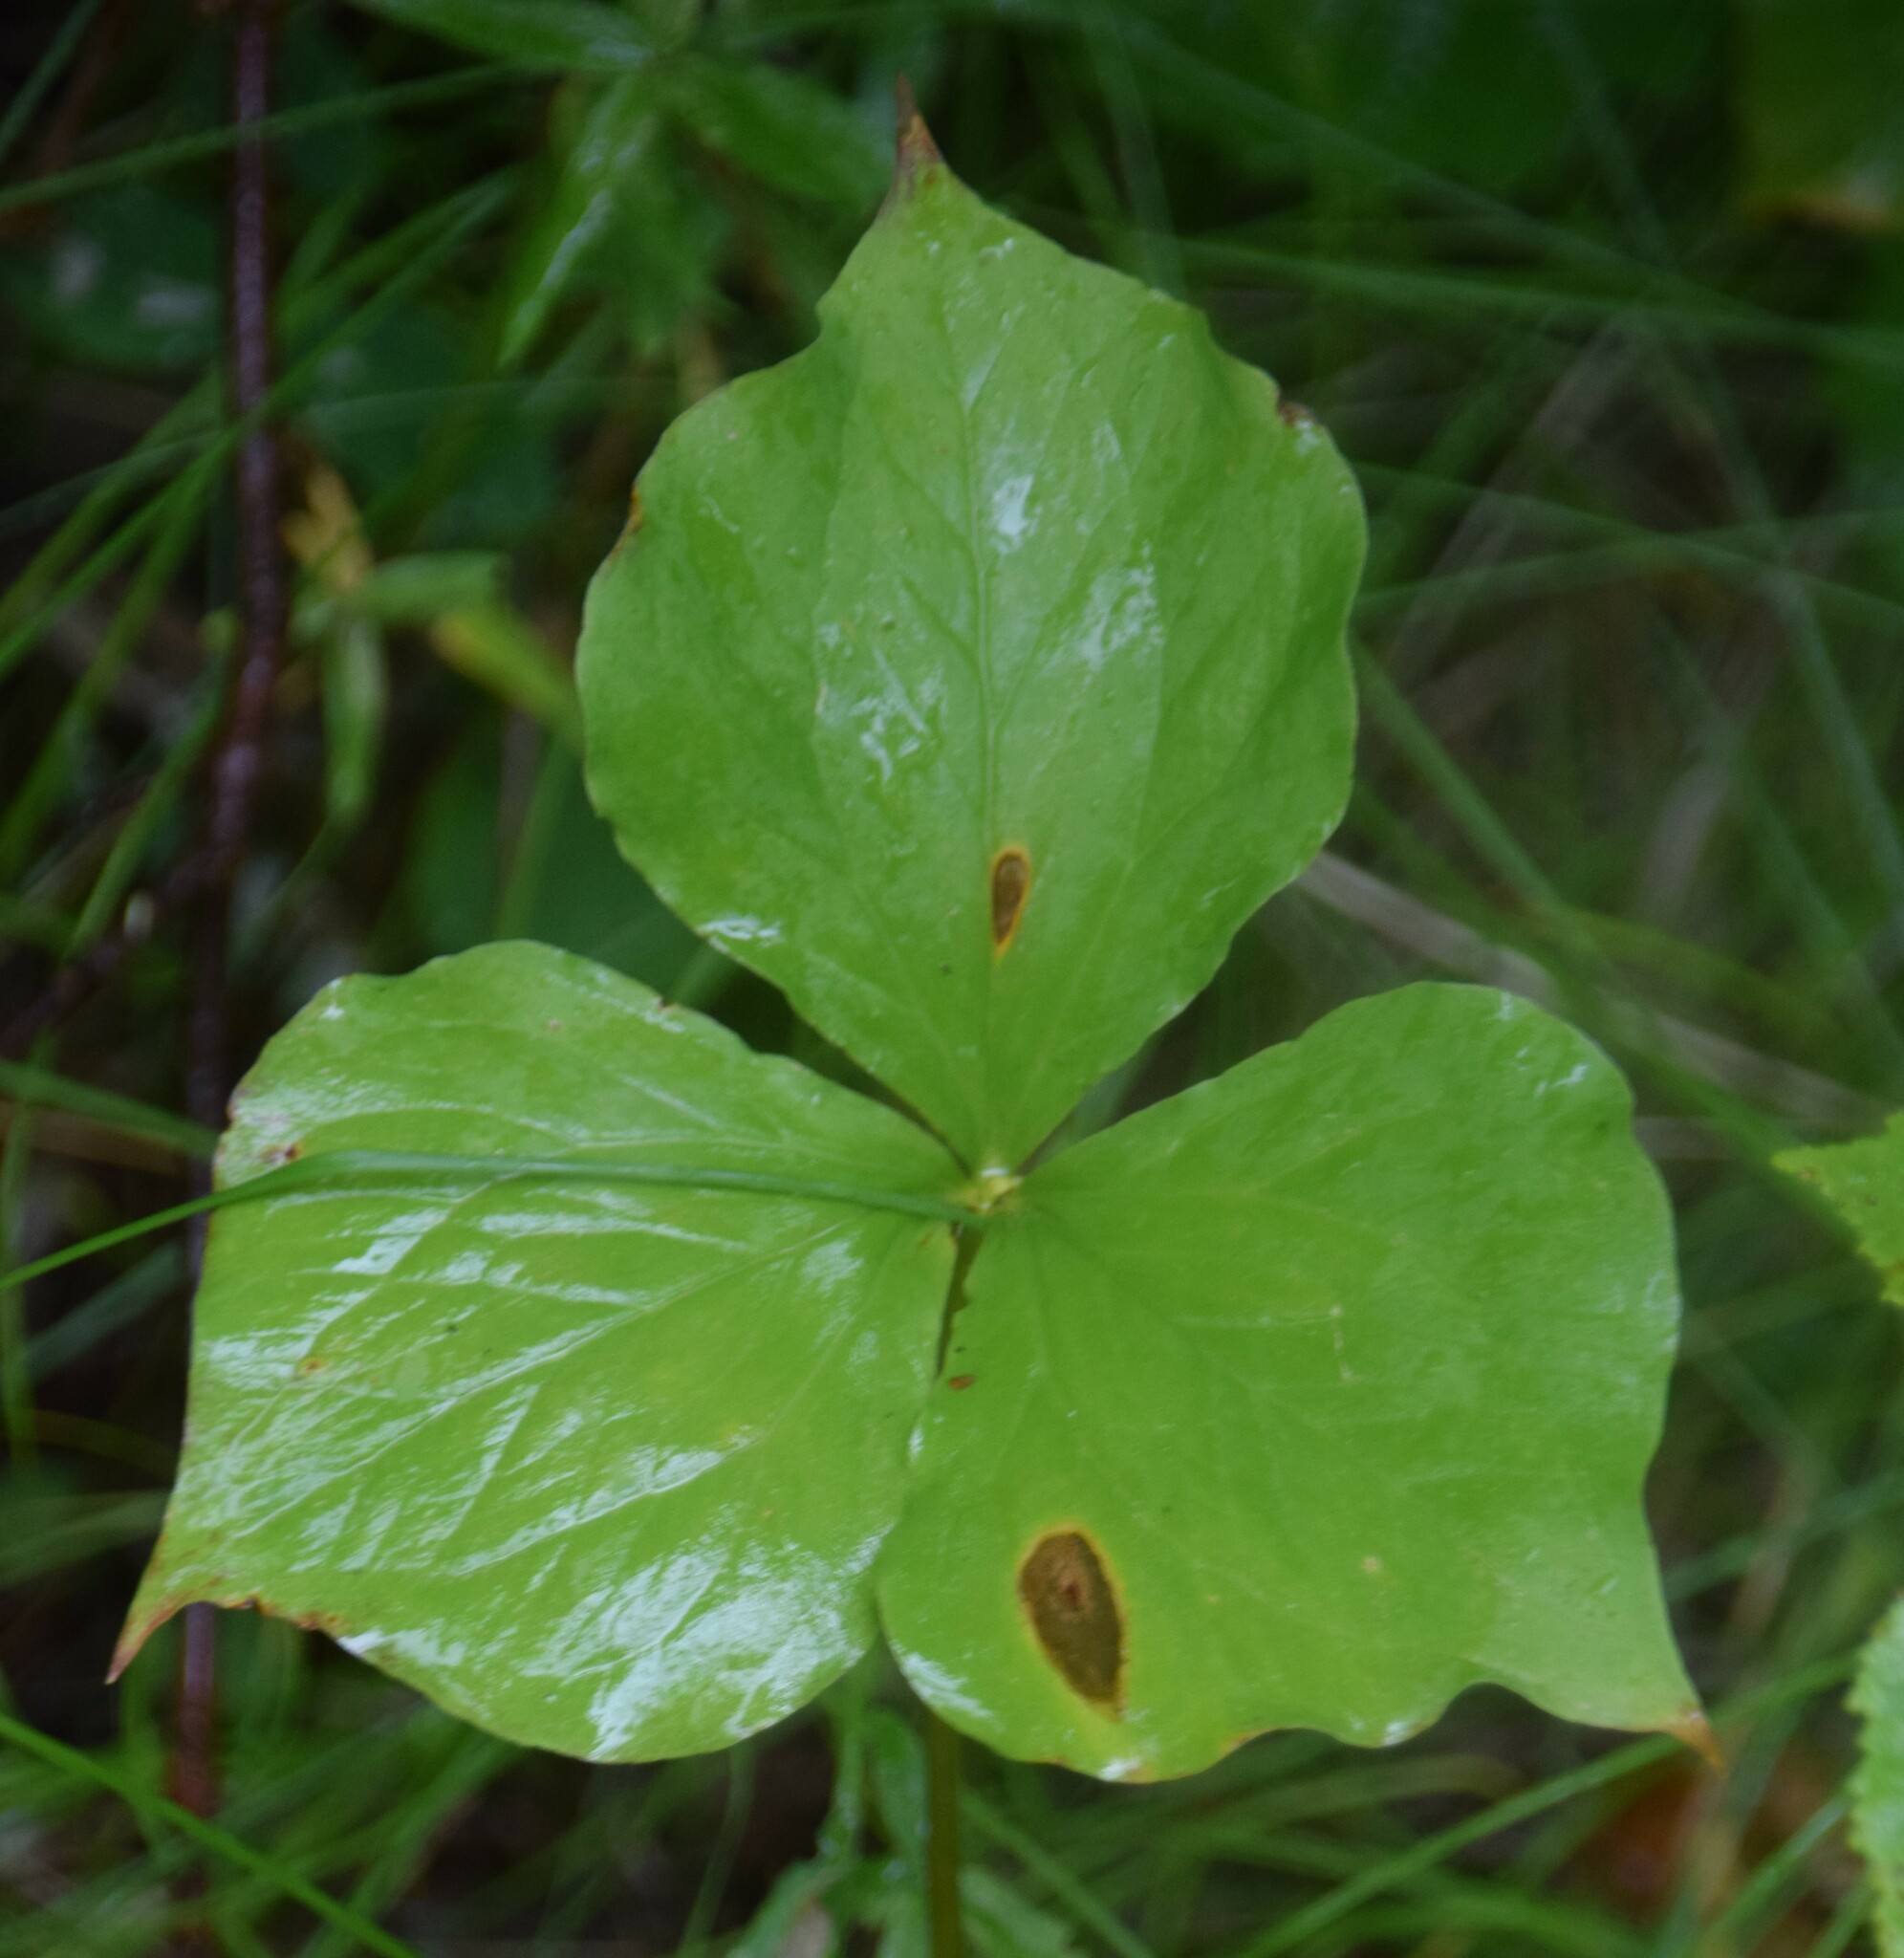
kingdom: Plantae
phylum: Tracheophyta
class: Liliopsida
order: Liliales
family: Melanthiaceae
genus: Trillium
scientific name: Trillium cernuum
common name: Nodding trillium
